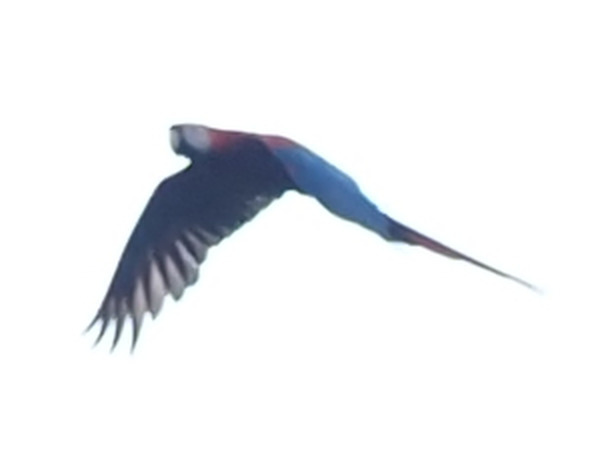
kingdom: Animalia
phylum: Chordata
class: Aves
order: Psittaciformes
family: Psittacidae
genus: Ara
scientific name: Ara macao
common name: Scarlet macaw
